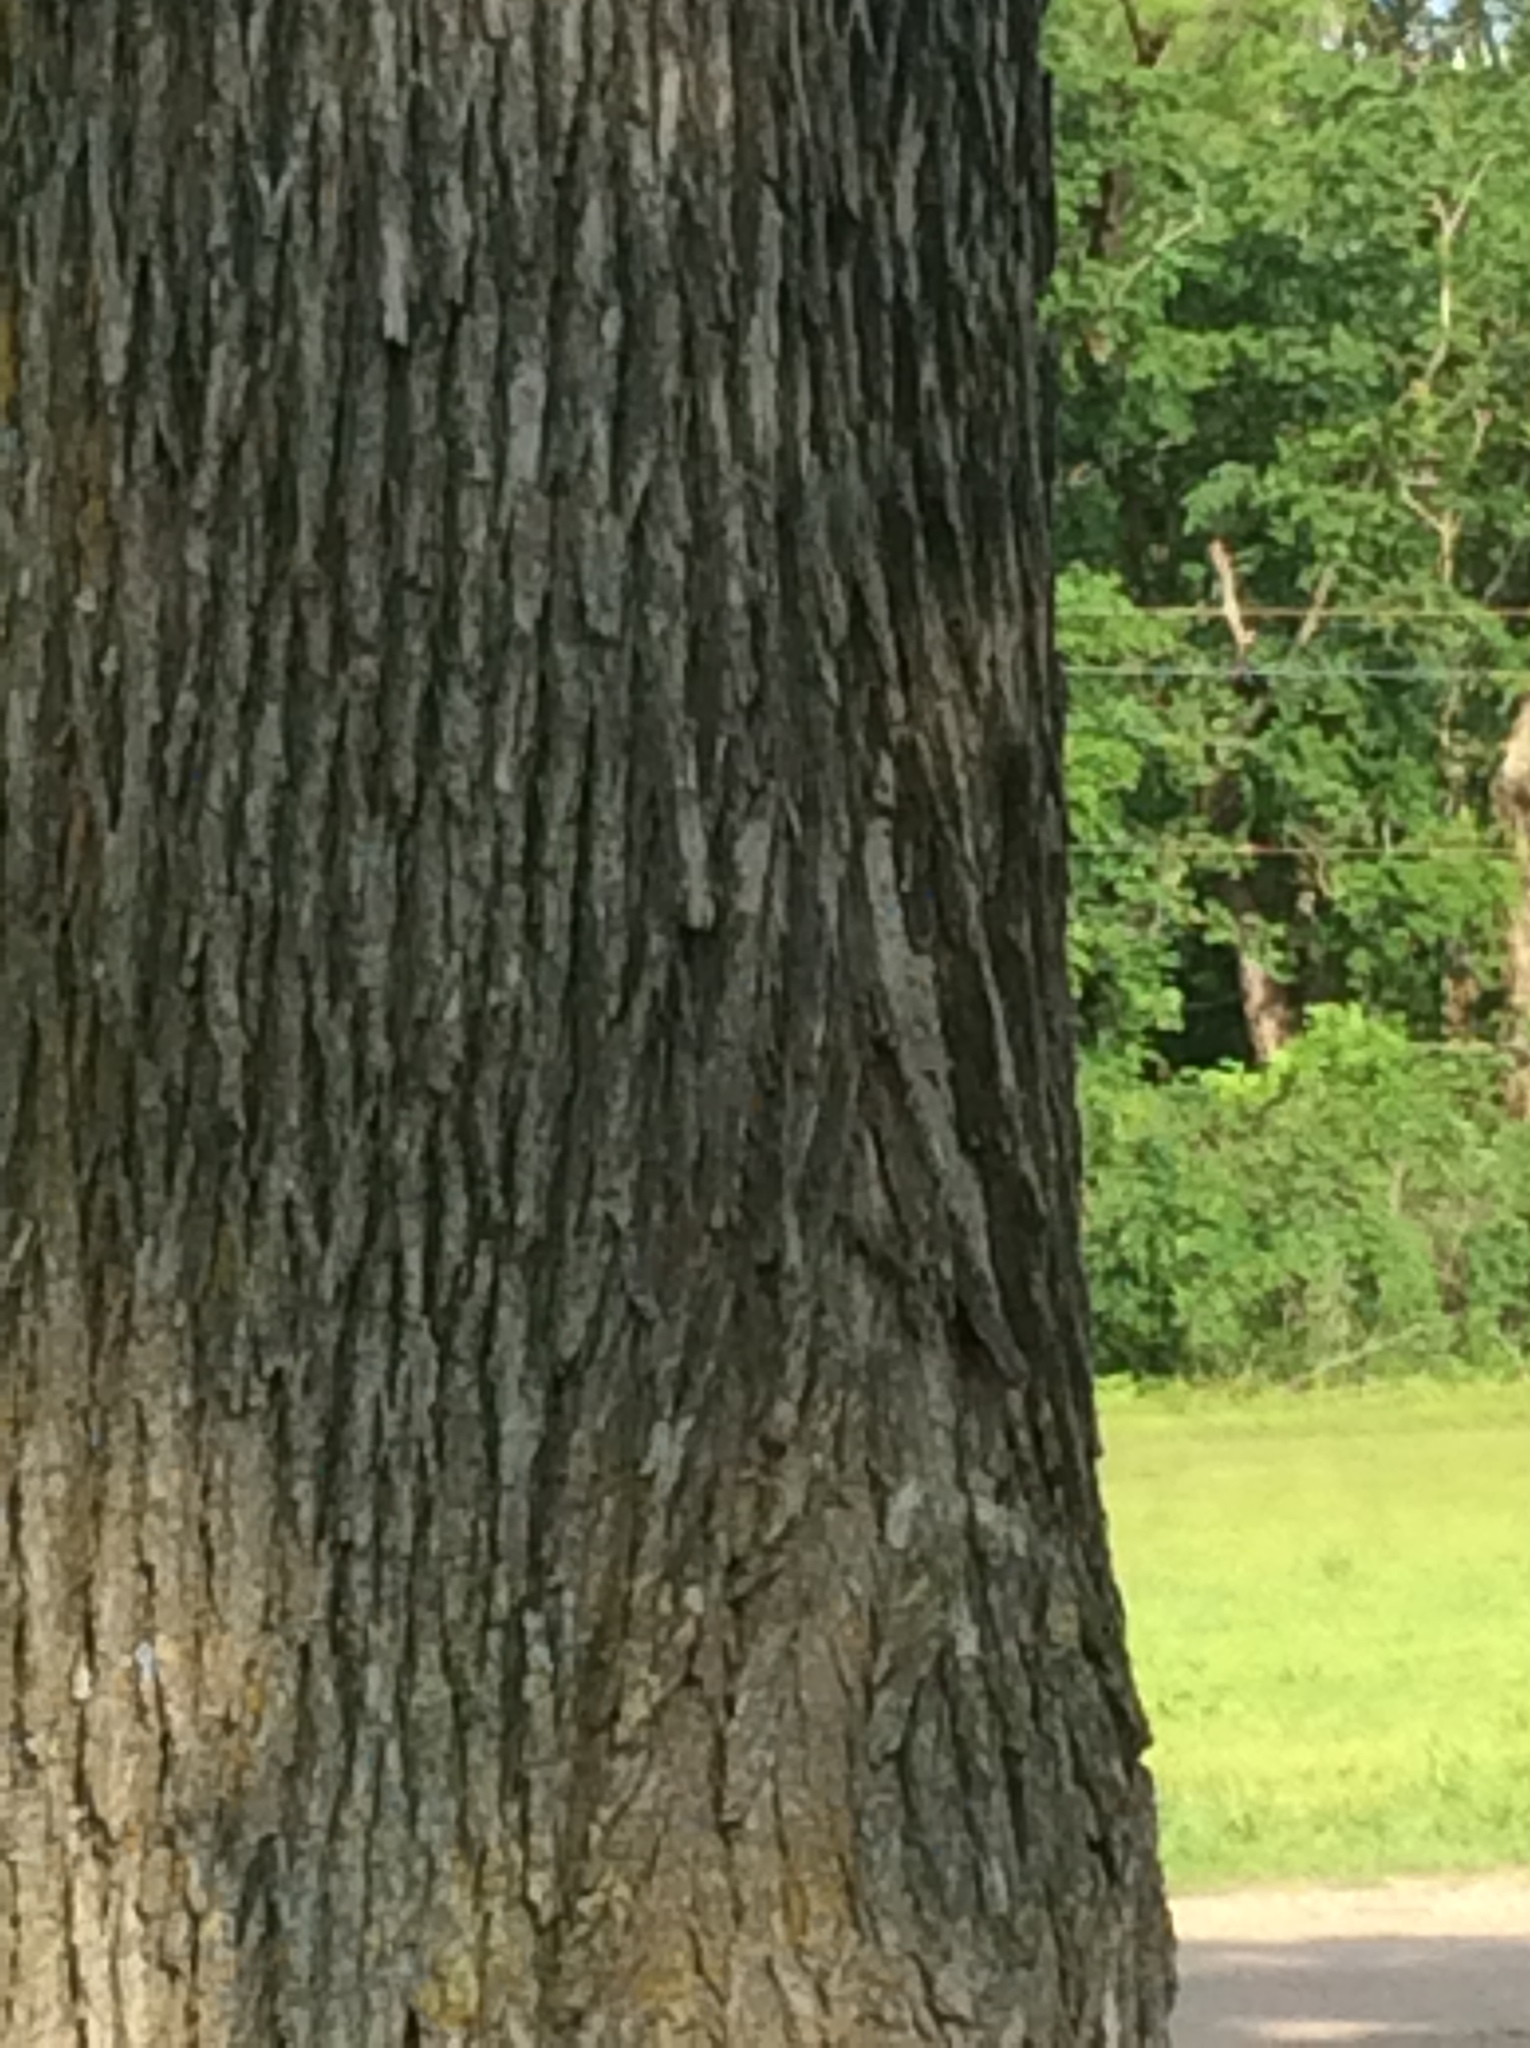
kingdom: Plantae
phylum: Tracheophyta
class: Magnoliopsida
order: Rosales
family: Ulmaceae
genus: Ulmus
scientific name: Ulmus crassifolia
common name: Basket elm
